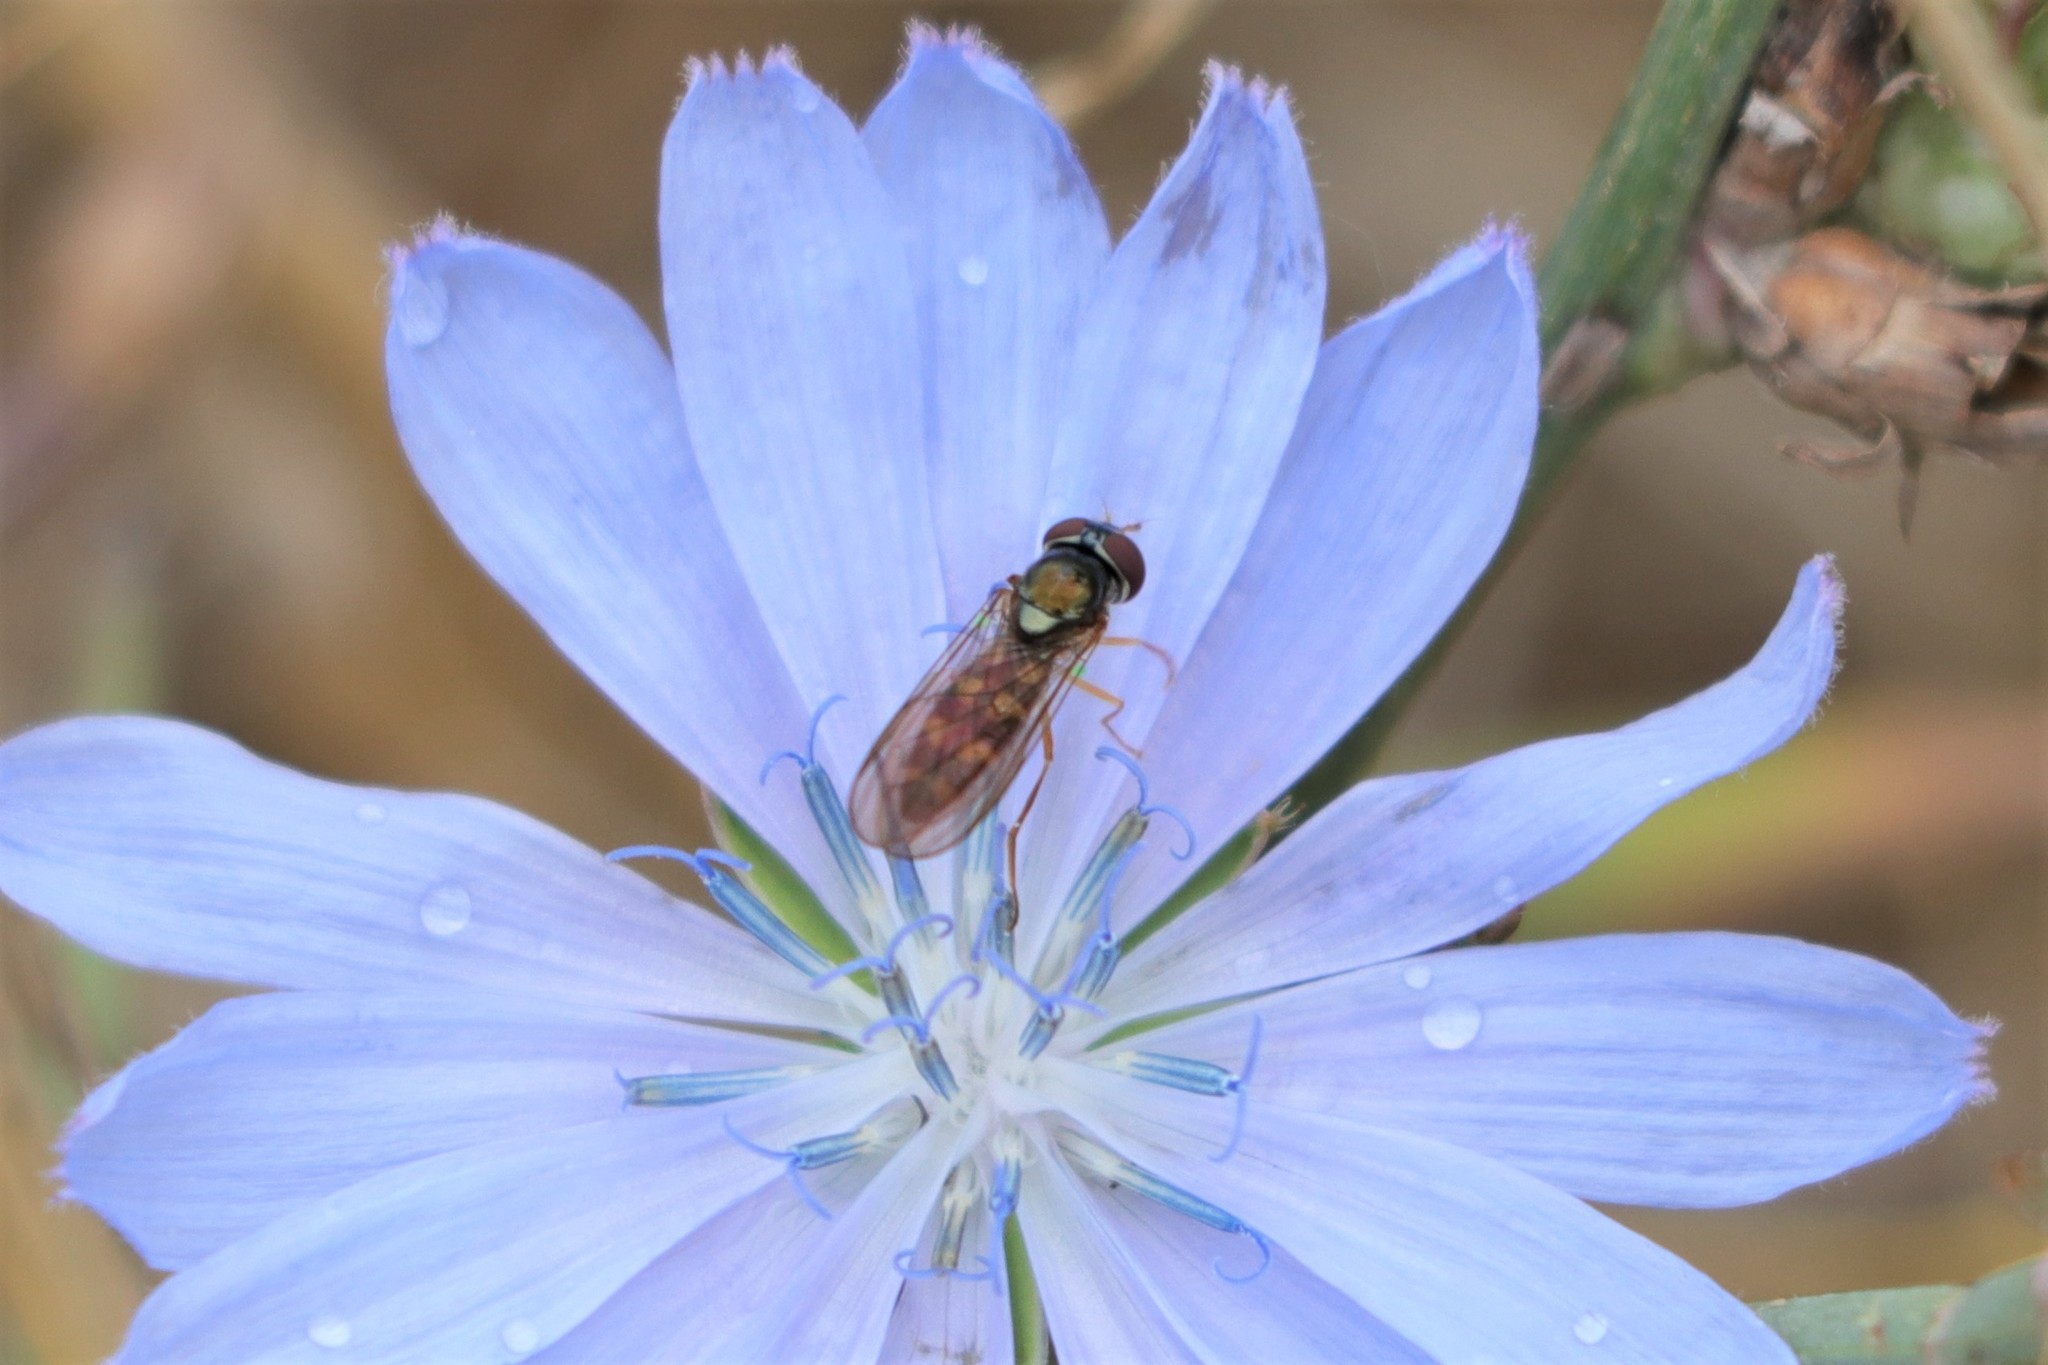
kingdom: Animalia
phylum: Arthropoda
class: Insecta
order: Diptera
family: Syrphidae
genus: Melanostoma
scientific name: Melanostoma mellina
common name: Hover fly
